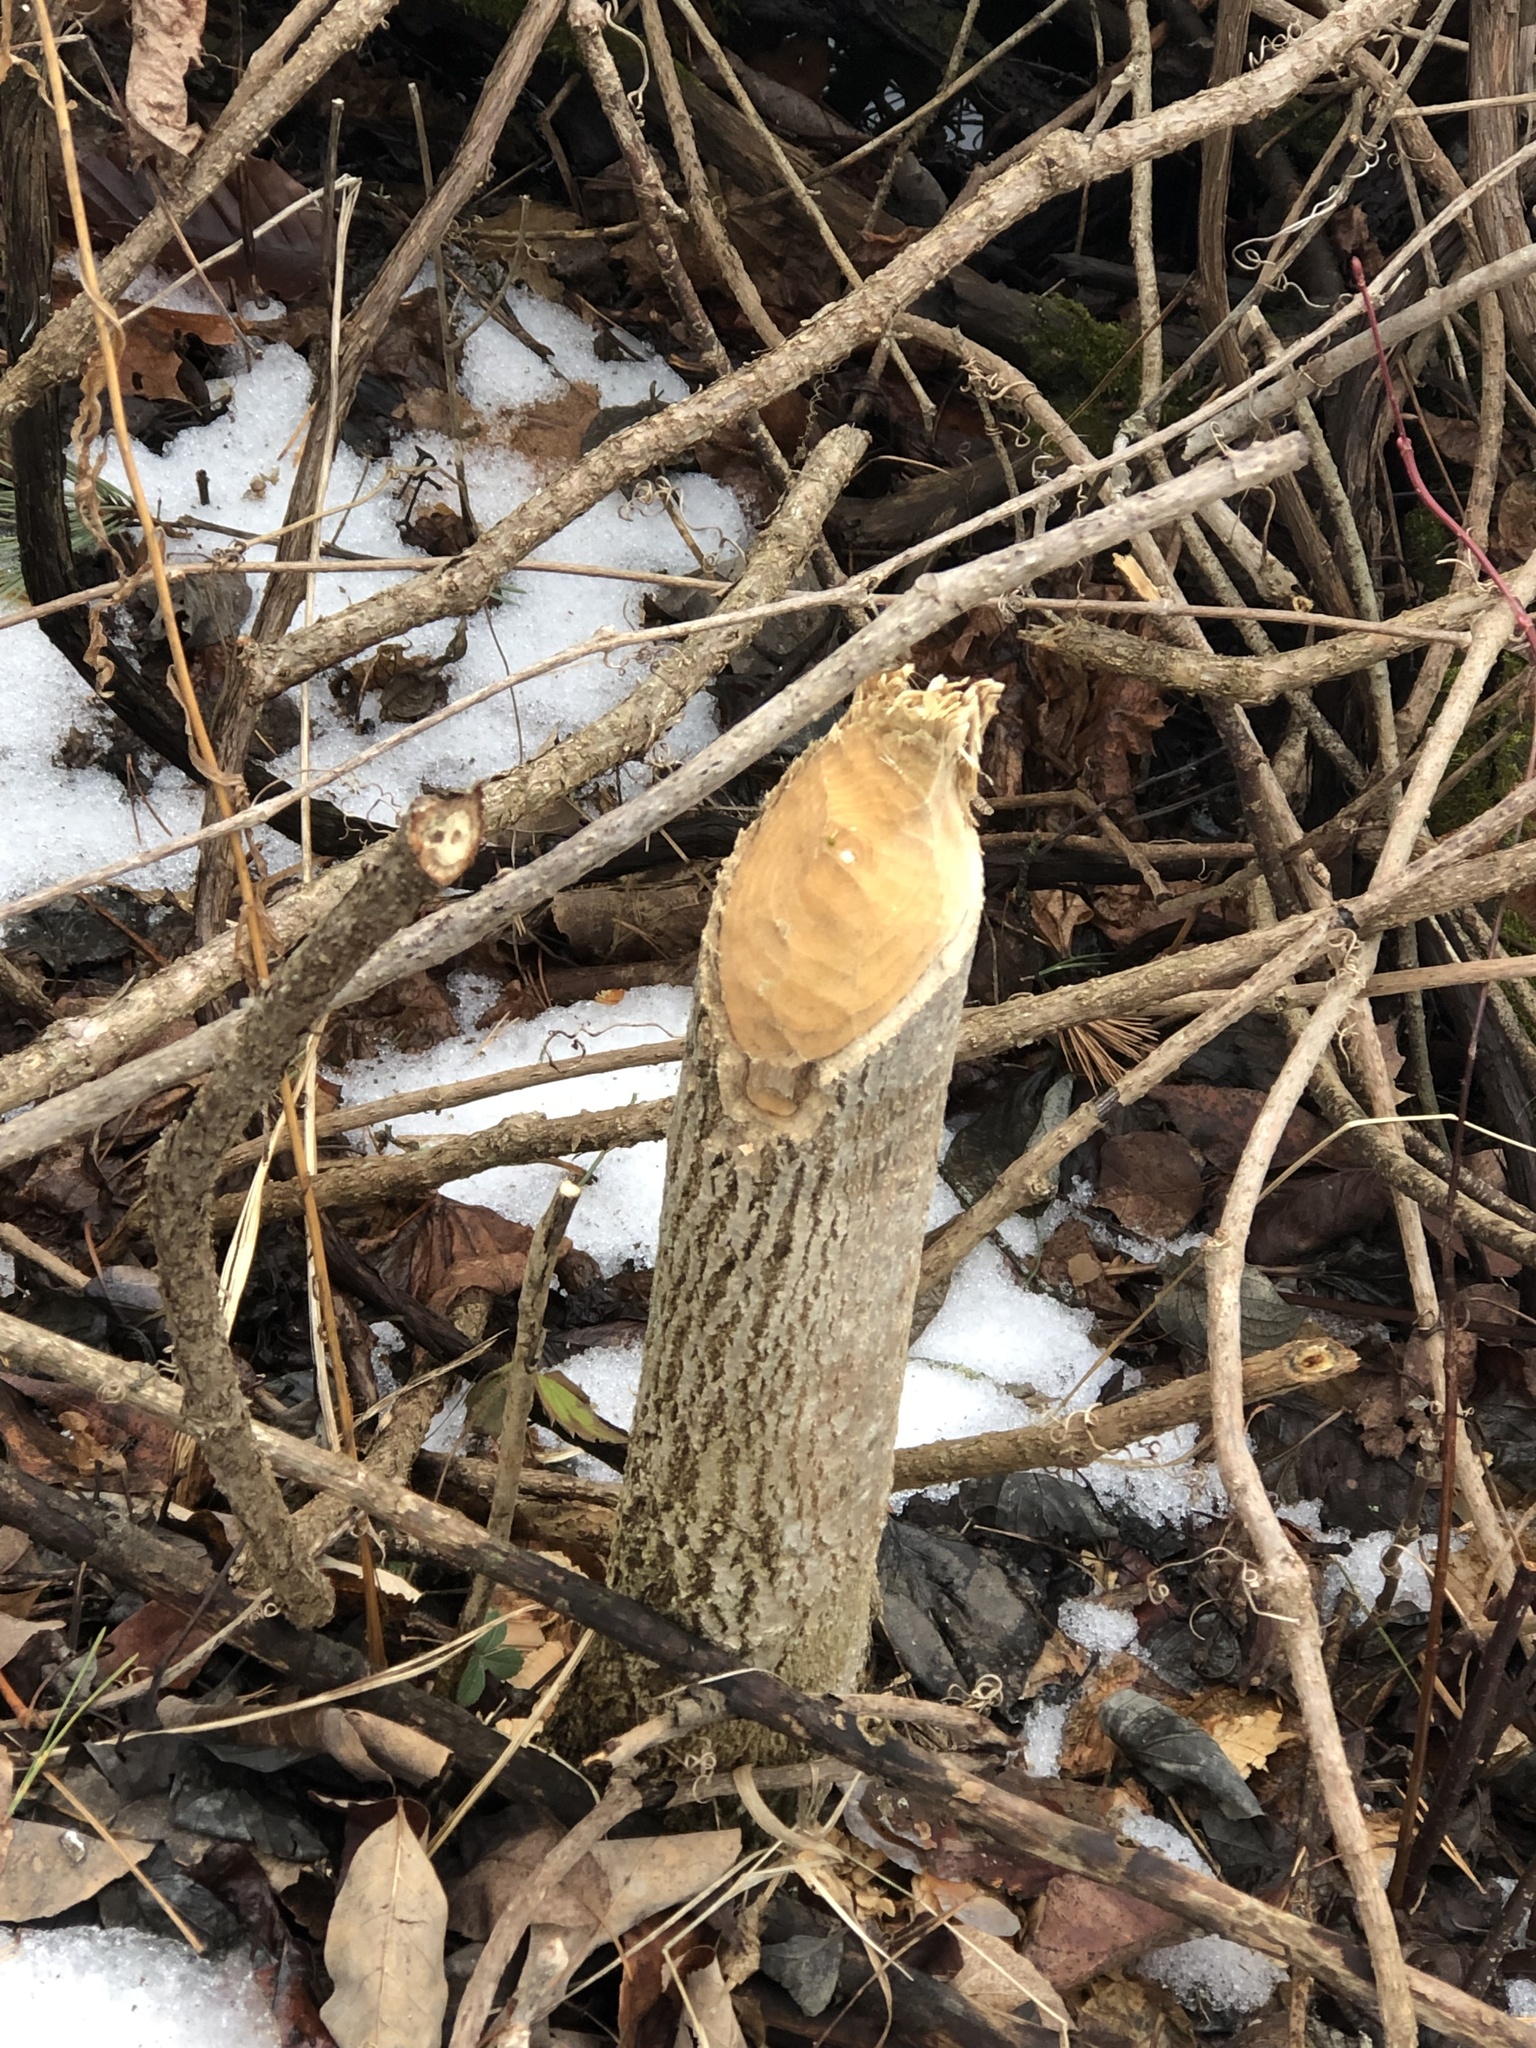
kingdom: Animalia
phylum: Chordata
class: Mammalia
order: Rodentia
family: Castoridae
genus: Castor
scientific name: Castor canadensis
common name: American beaver
